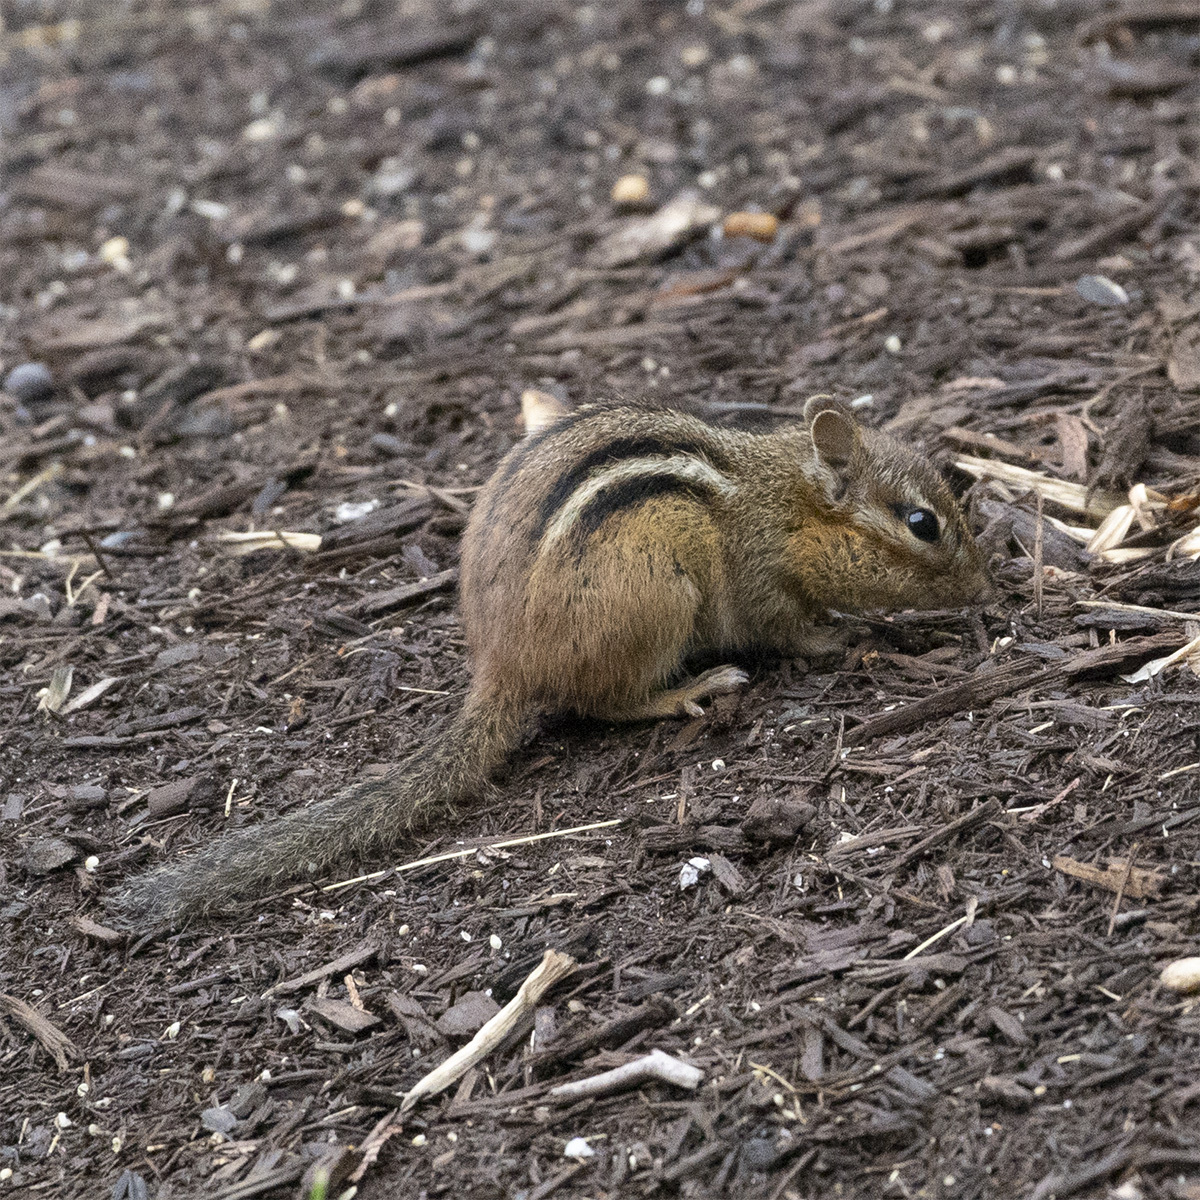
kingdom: Animalia
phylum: Chordata
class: Mammalia
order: Rodentia
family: Sciuridae
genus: Tamias
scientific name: Tamias striatus
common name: Eastern chipmunk
